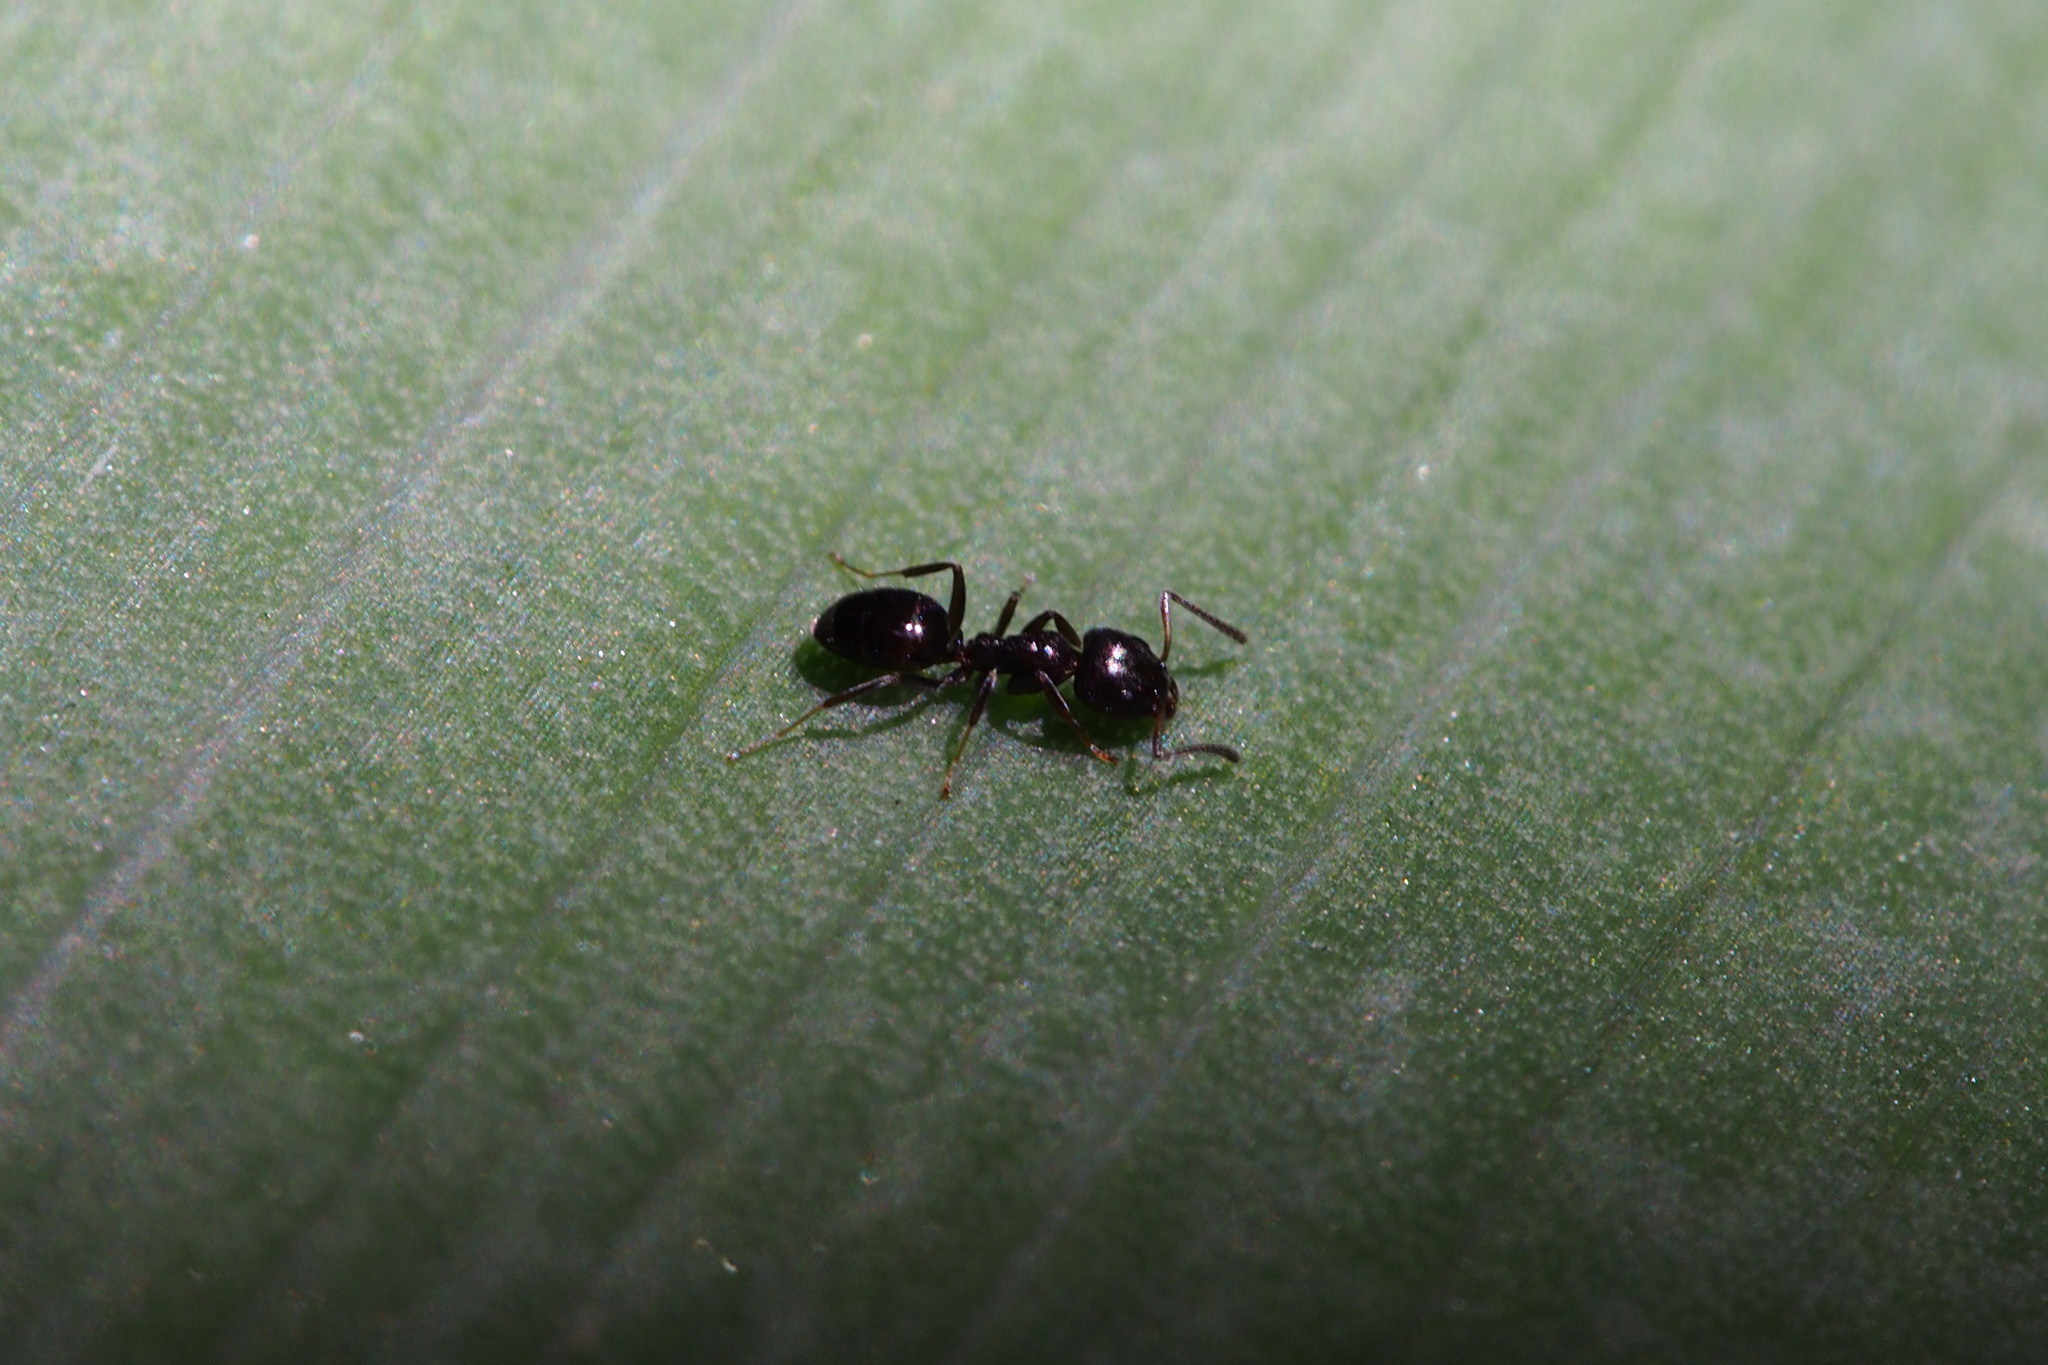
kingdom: Animalia
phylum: Arthropoda
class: Insecta
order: Hymenoptera
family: Formicidae
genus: Ochetellus
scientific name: Ochetellus glaber
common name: Ant
